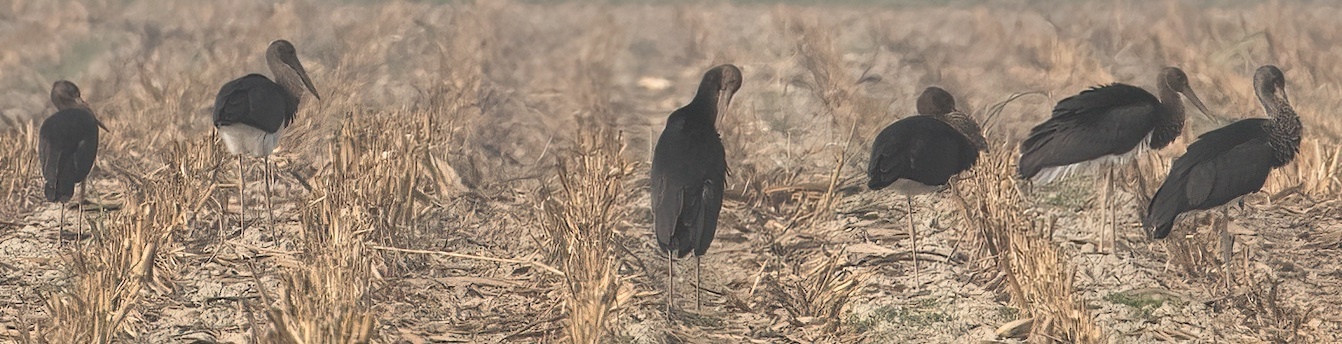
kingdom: Animalia
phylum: Chordata
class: Aves
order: Ciconiiformes
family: Ciconiidae
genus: Ciconia
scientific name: Ciconia nigra
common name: Black stork
